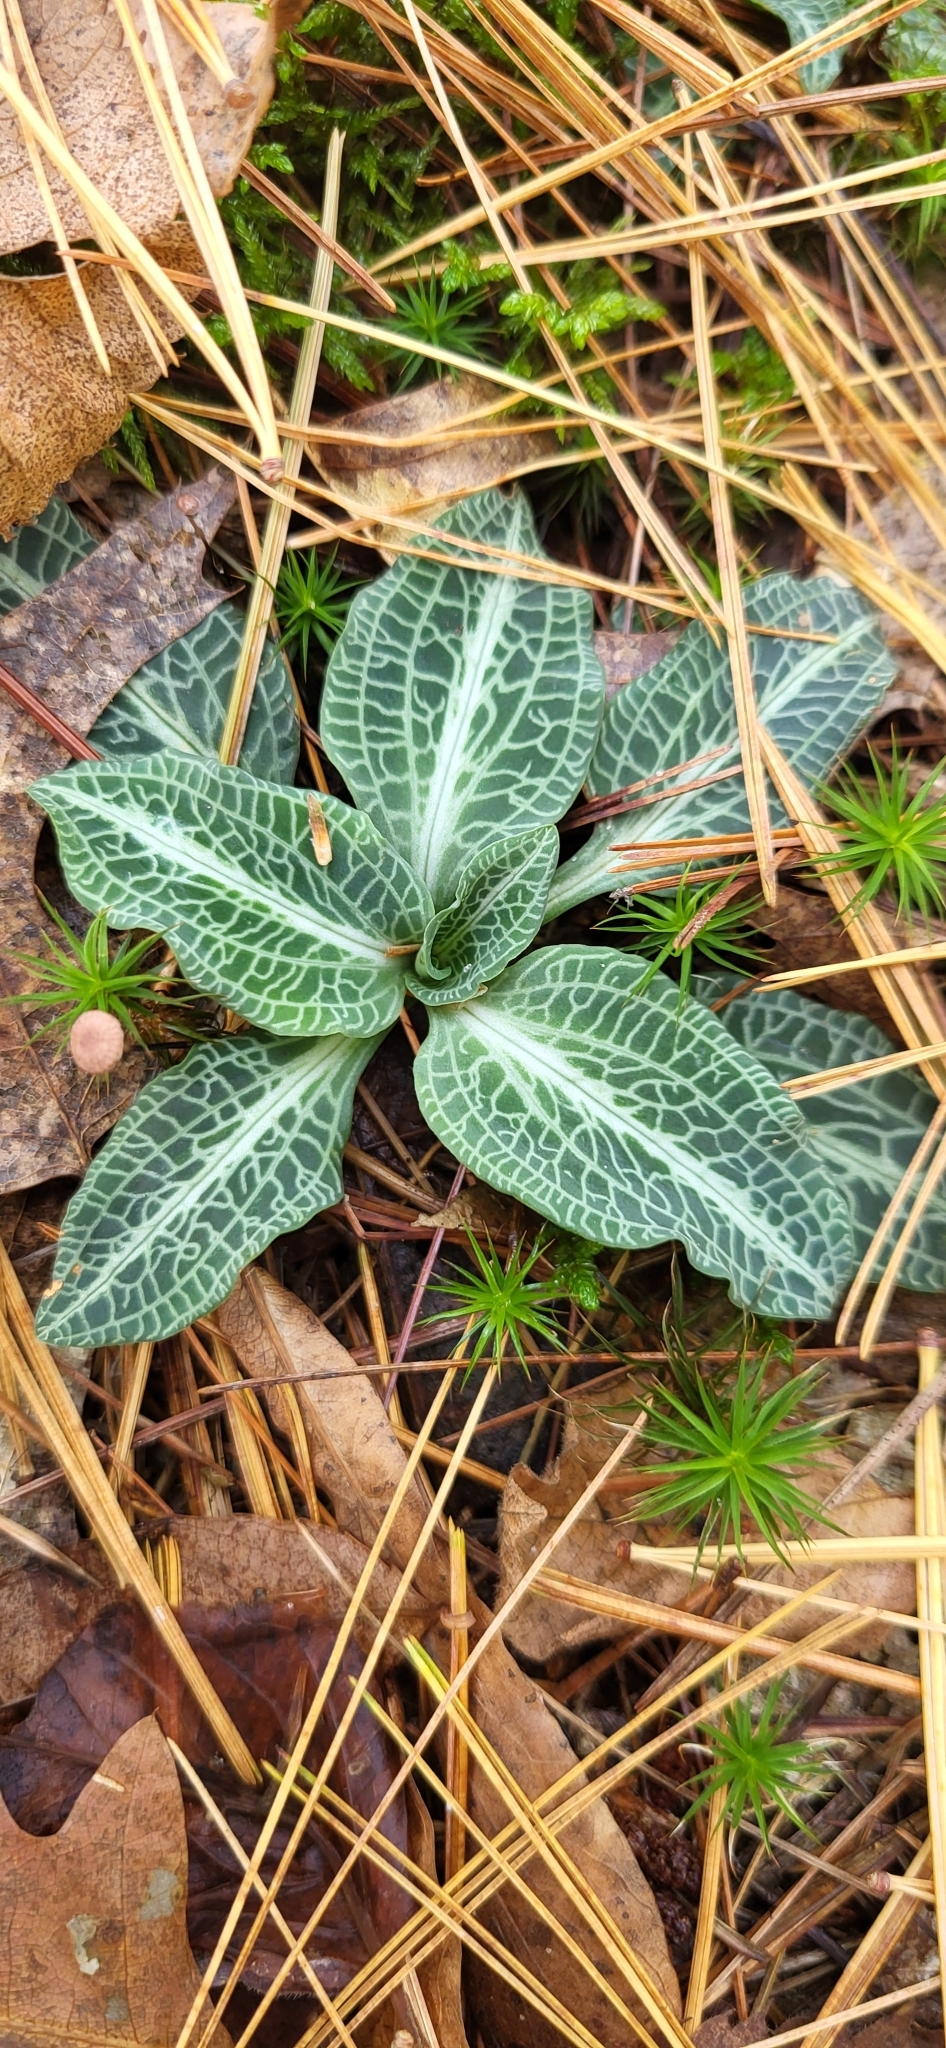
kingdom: Plantae
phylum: Tracheophyta
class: Liliopsida
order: Asparagales
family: Orchidaceae
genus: Goodyera
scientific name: Goodyera pubescens
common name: Downy rattlesnake-plantain
